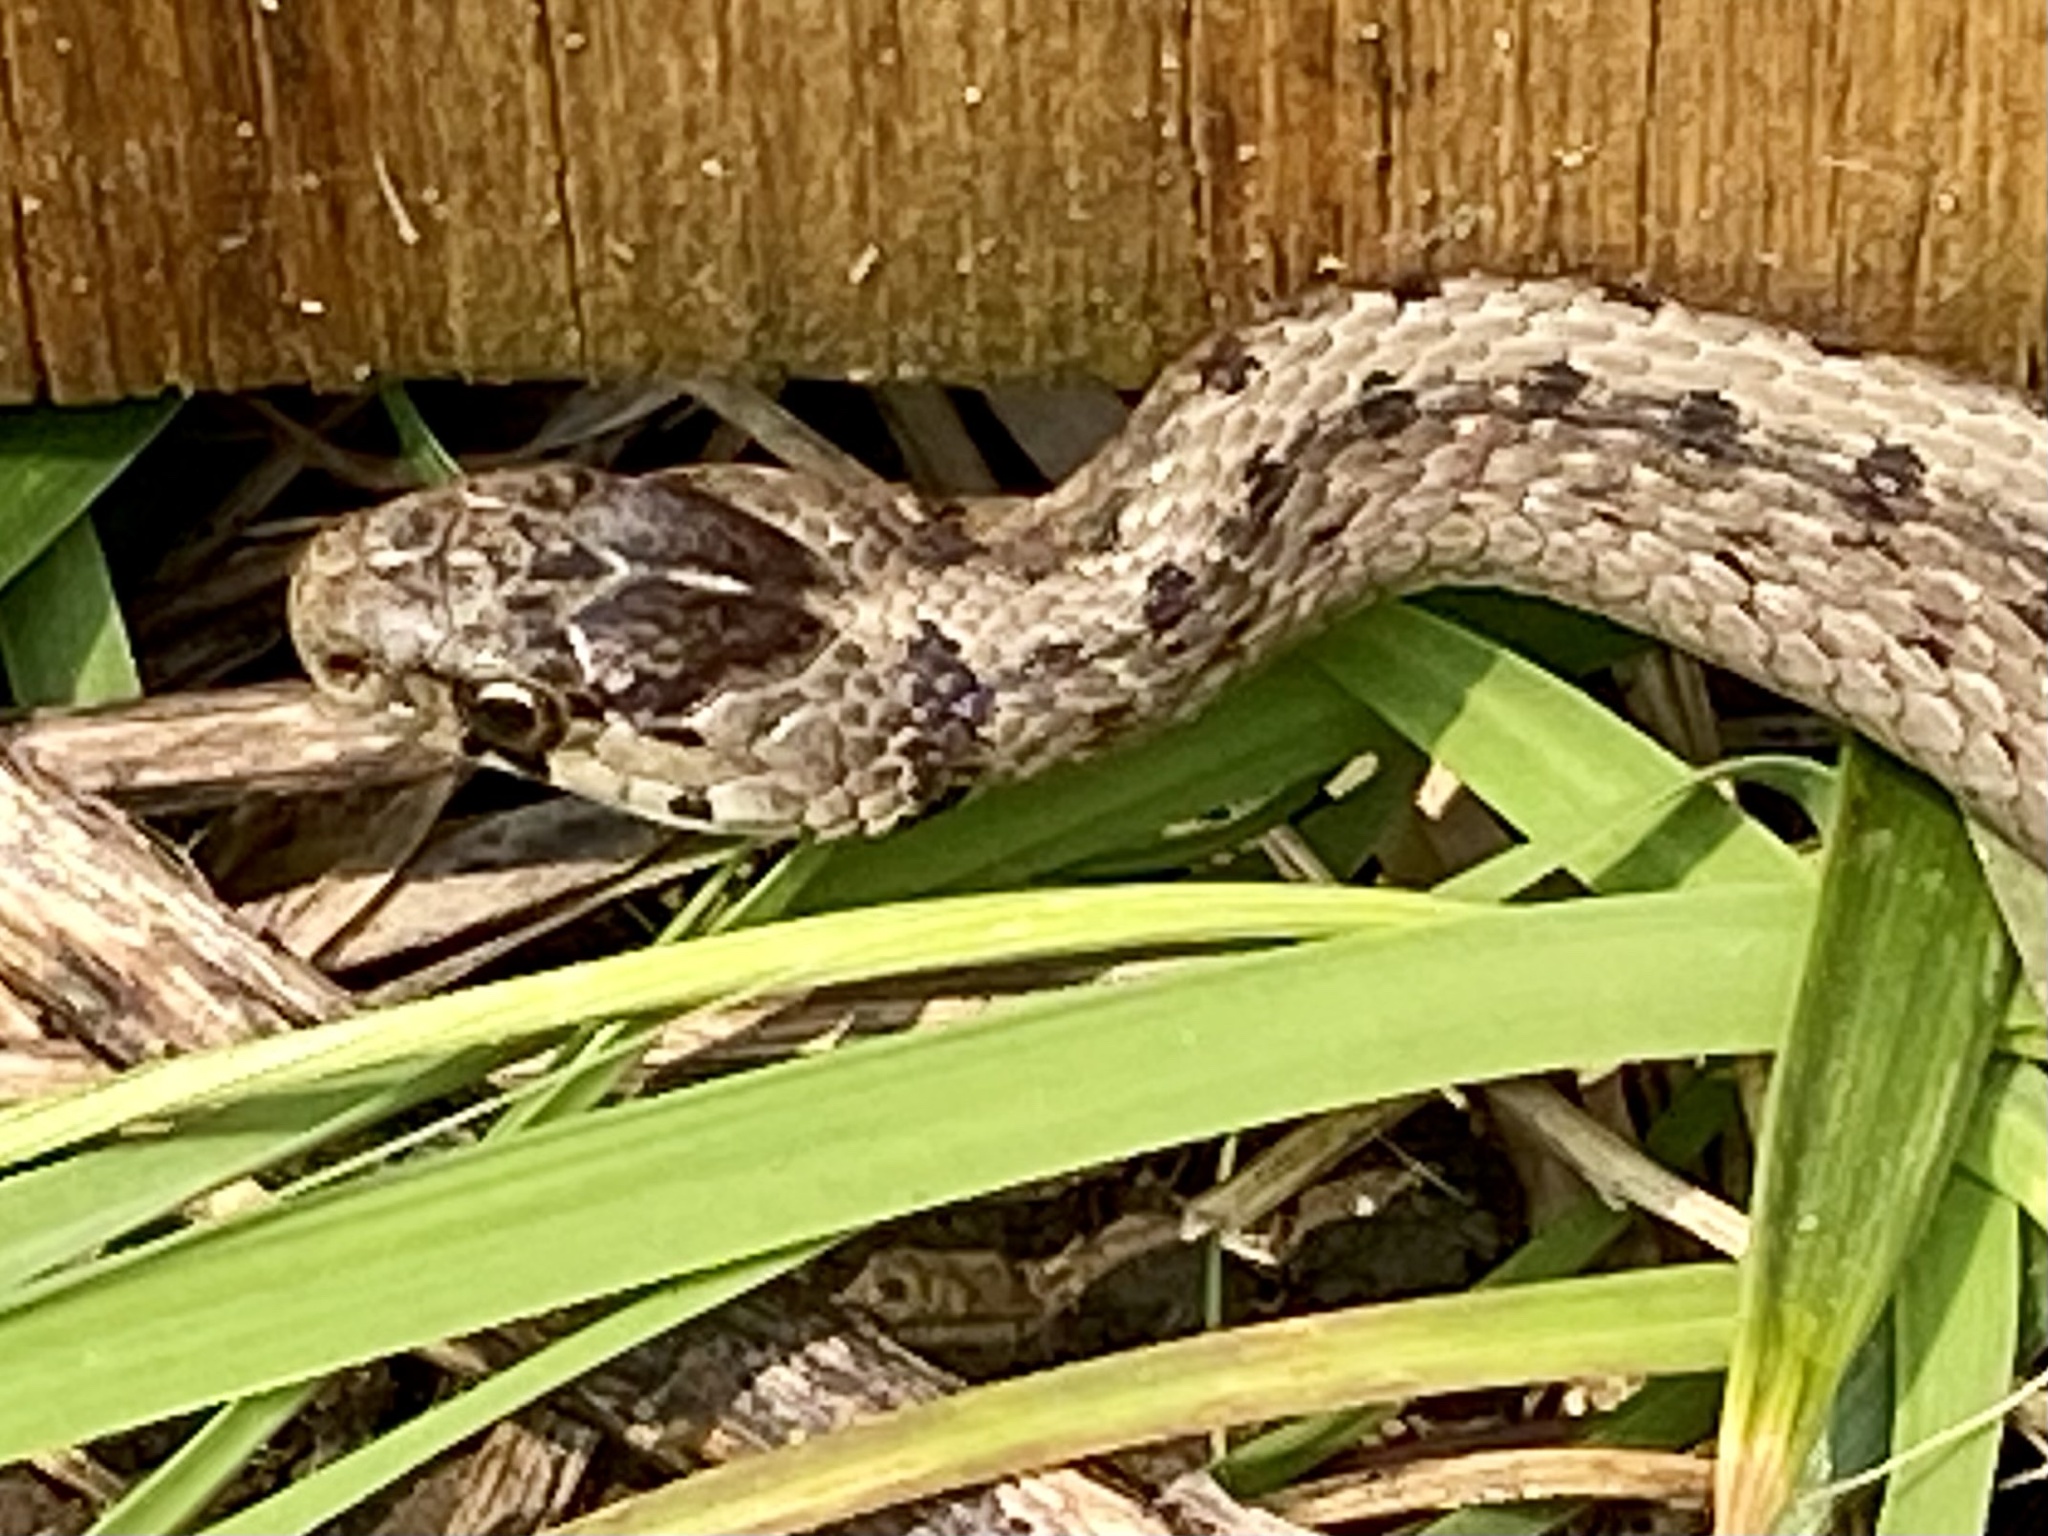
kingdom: Animalia
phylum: Chordata
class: Squamata
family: Colubridae
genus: Storeria
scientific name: Storeria dekayi
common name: (dekay’s) brown snake
